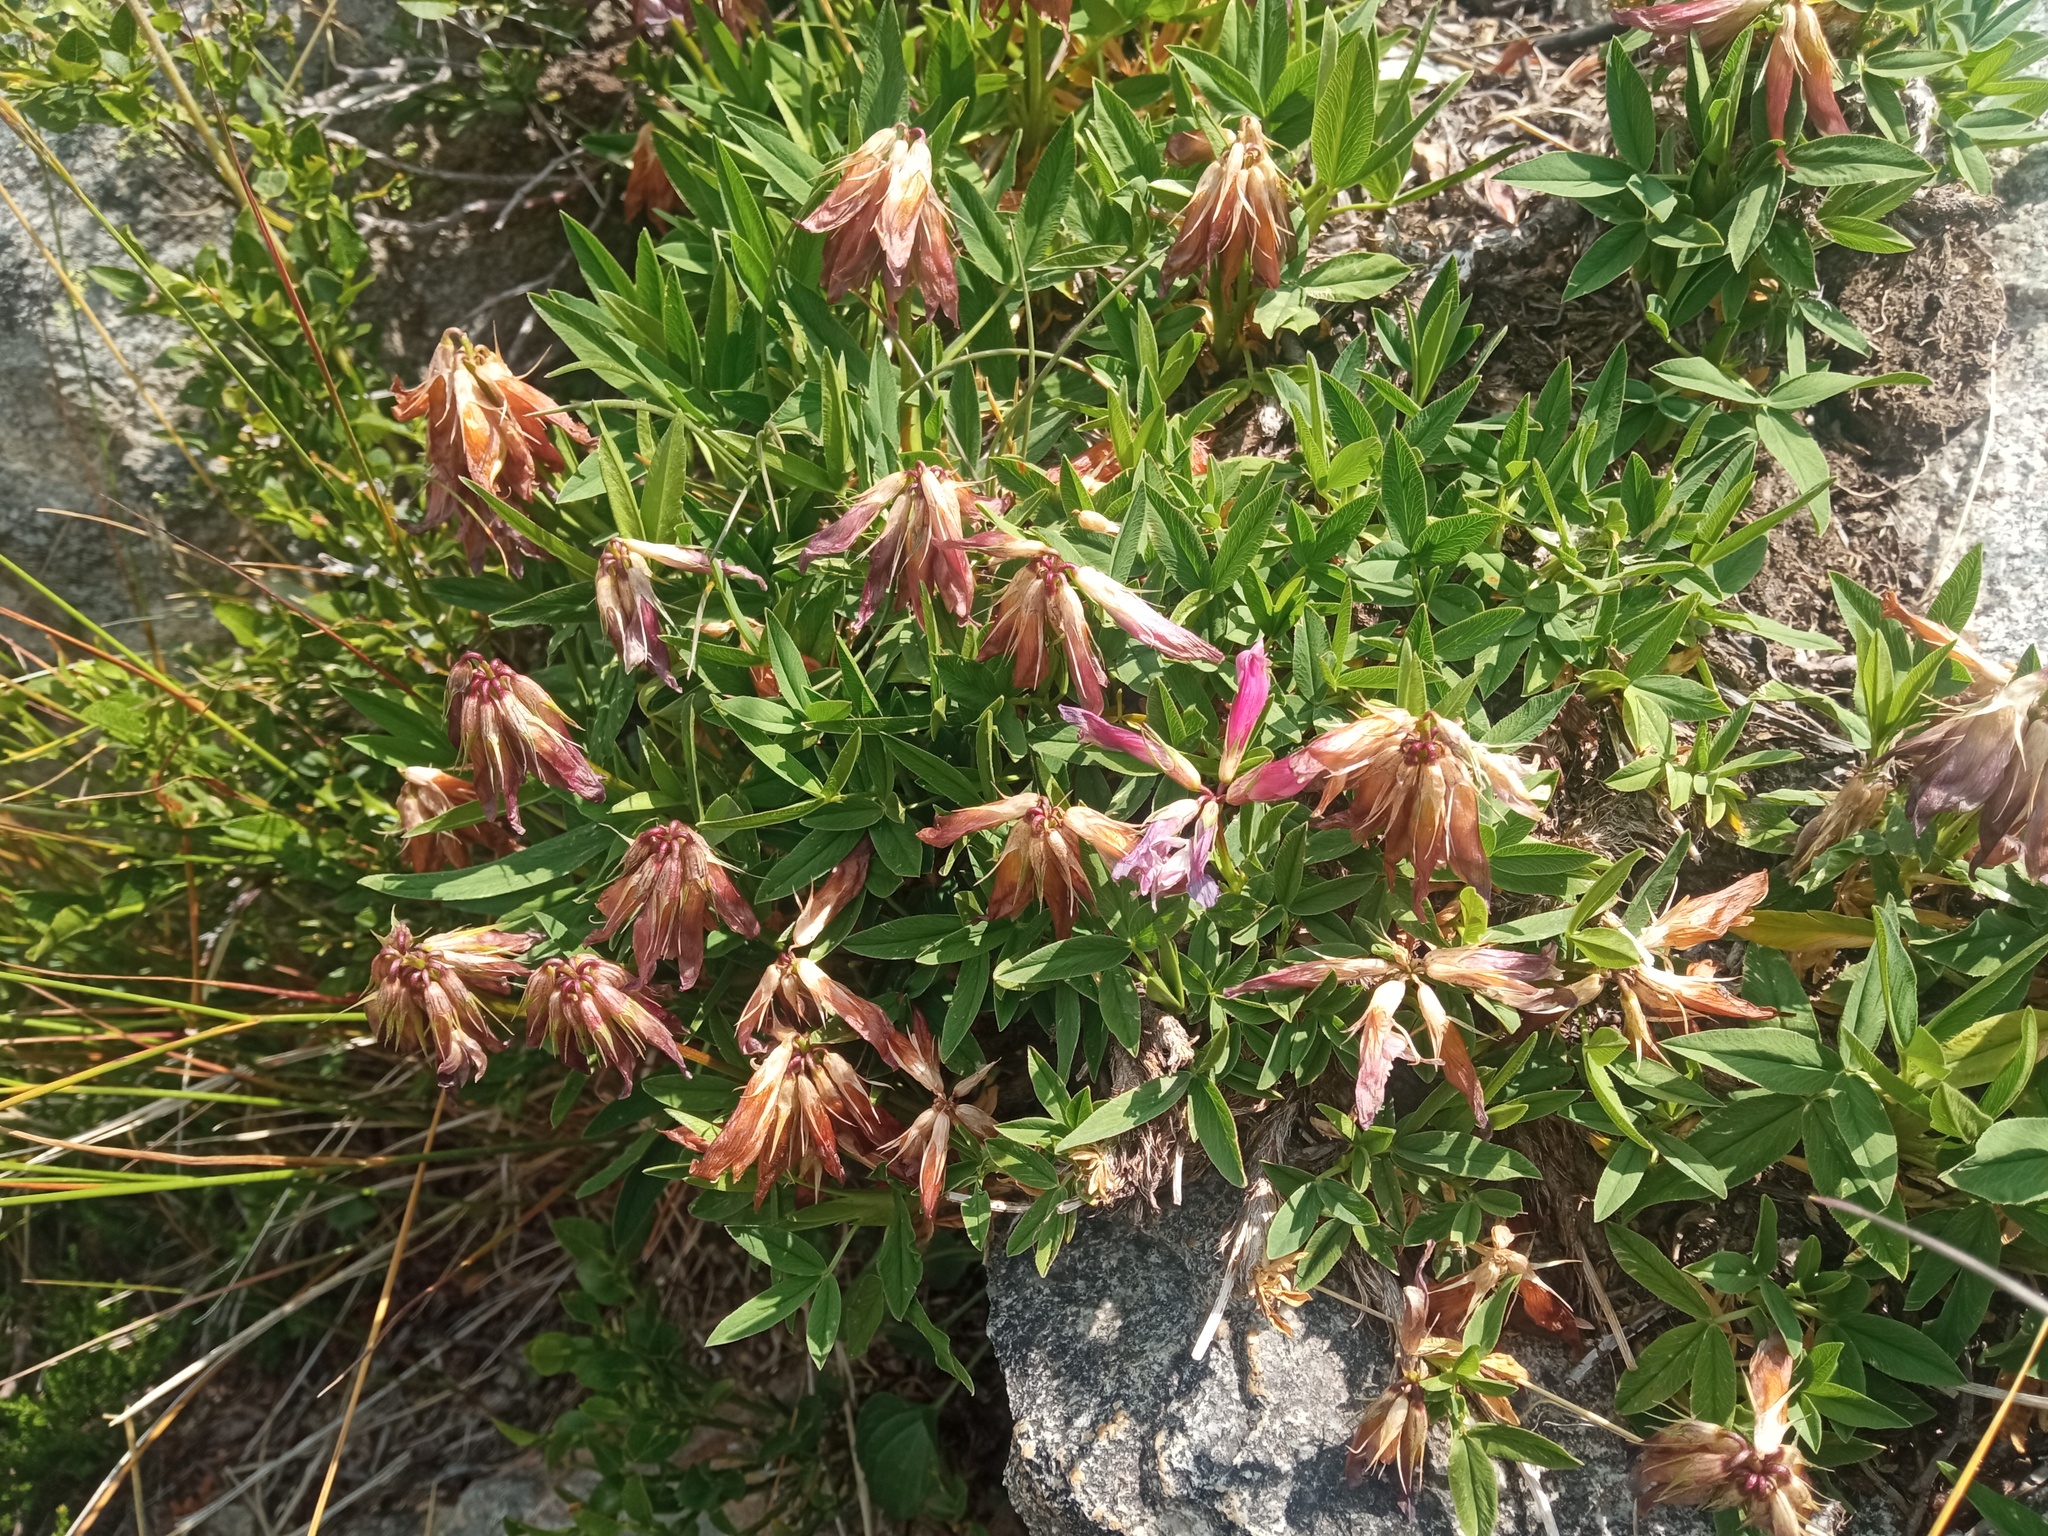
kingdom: Plantae
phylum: Tracheophyta
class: Magnoliopsida
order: Fabales
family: Fabaceae
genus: Trifolium
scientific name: Trifolium alpinum
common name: Alpine clover
